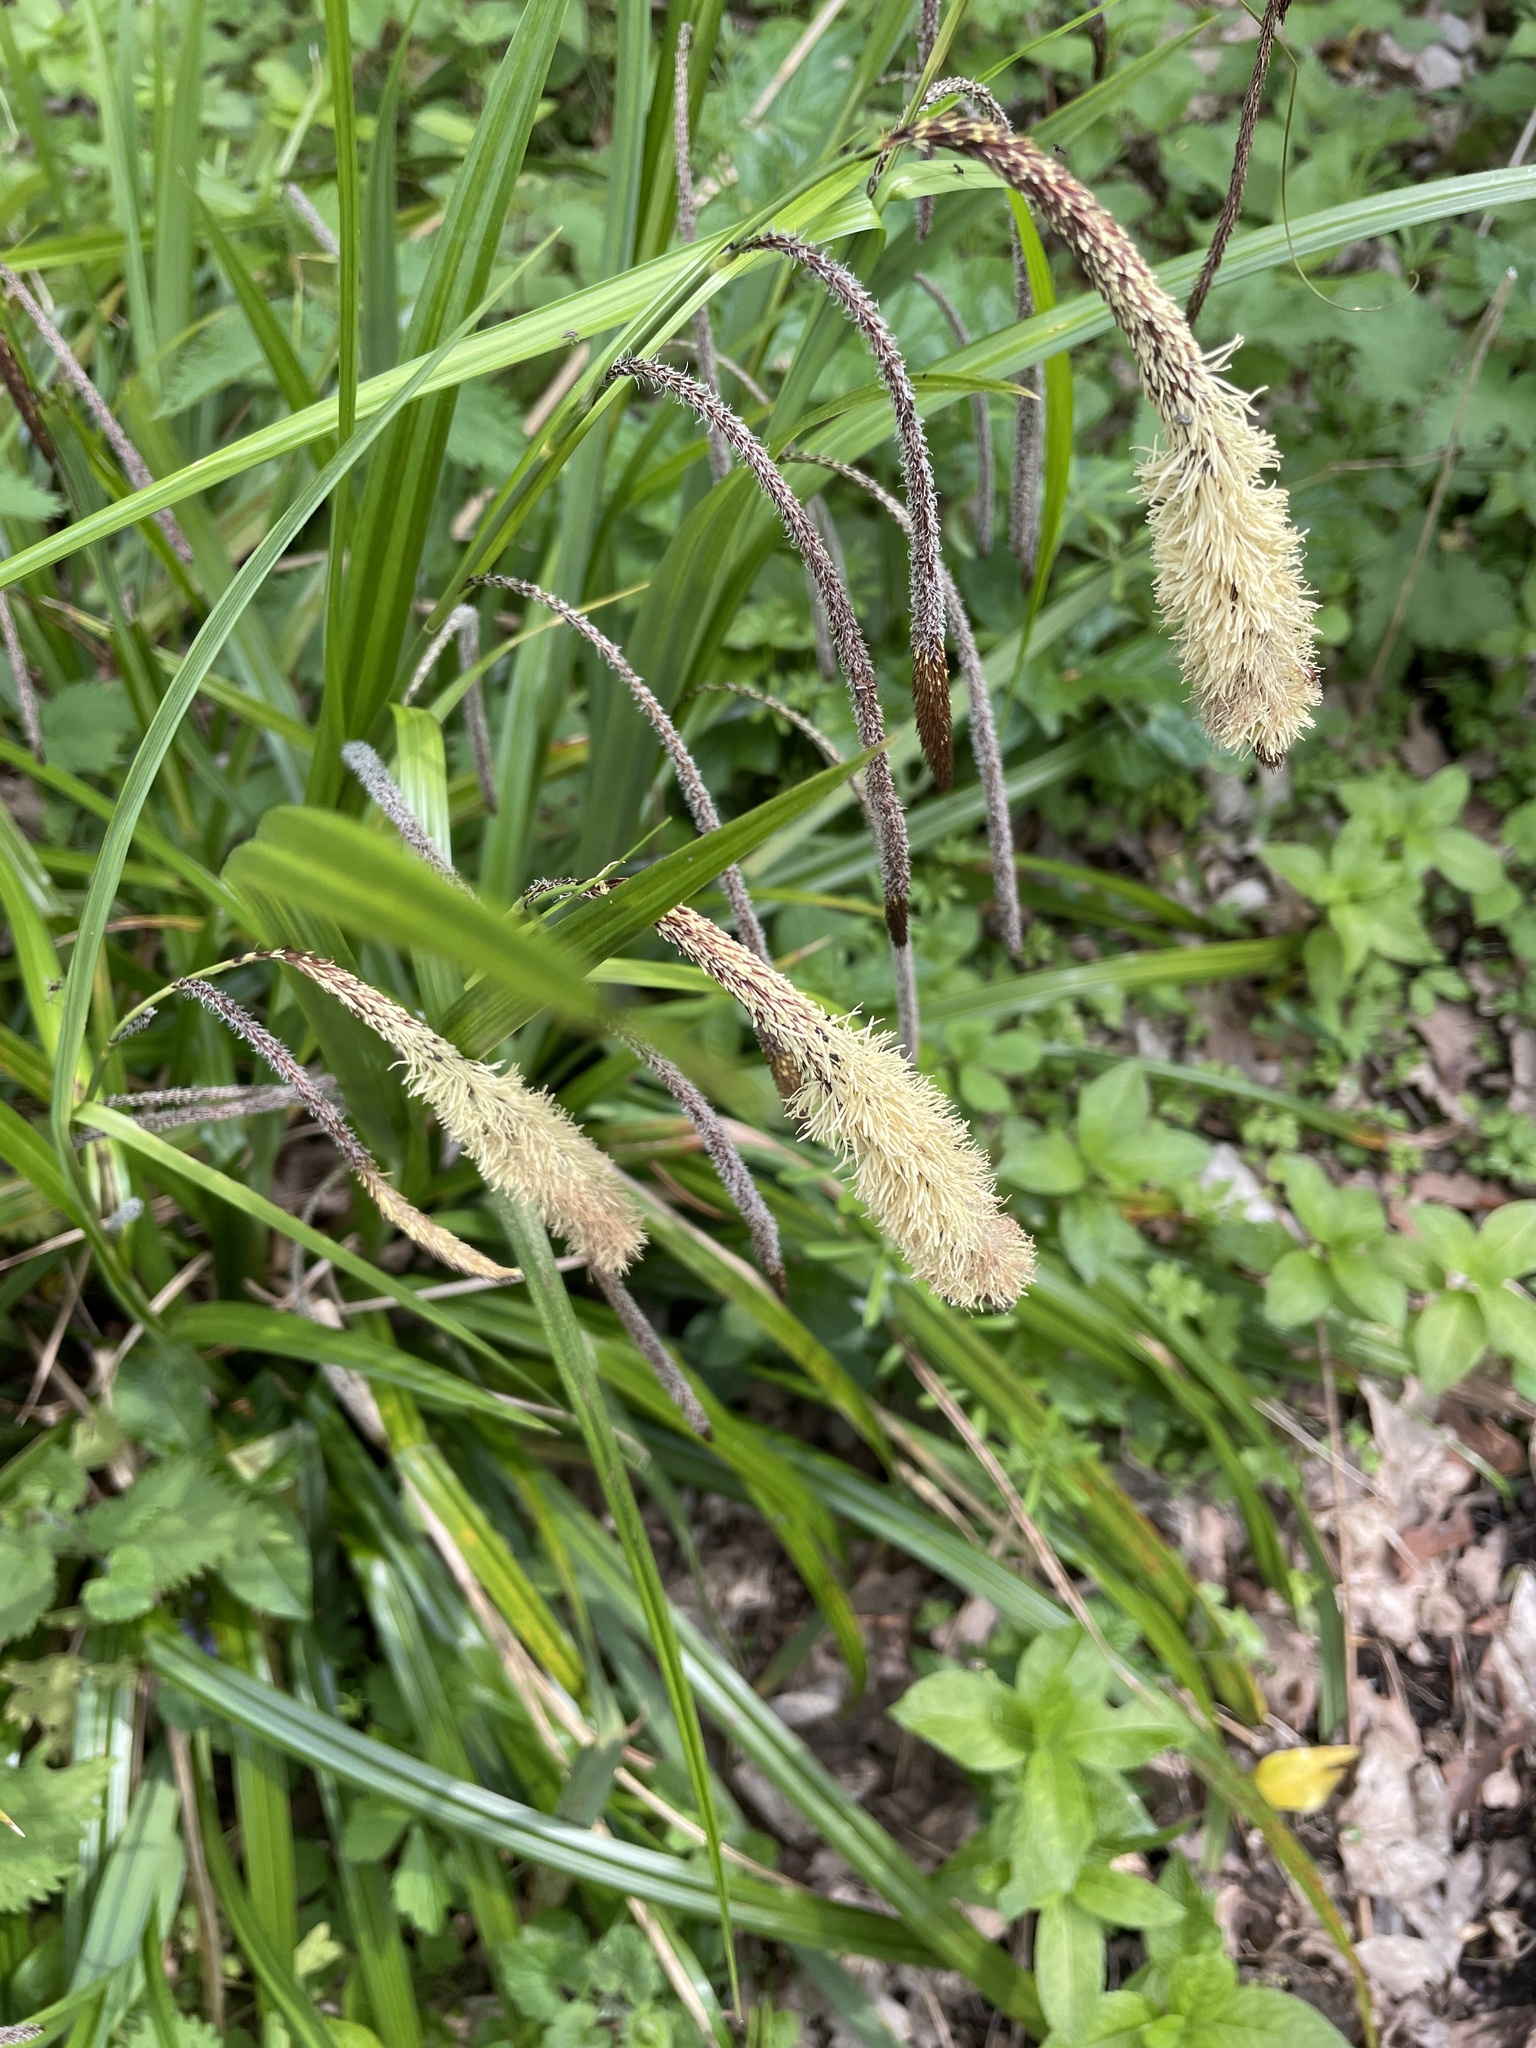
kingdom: Plantae
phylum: Tracheophyta
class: Liliopsida
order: Poales
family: Cyperaceae
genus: Carex
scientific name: Carex pendula
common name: Pendulous sedge
